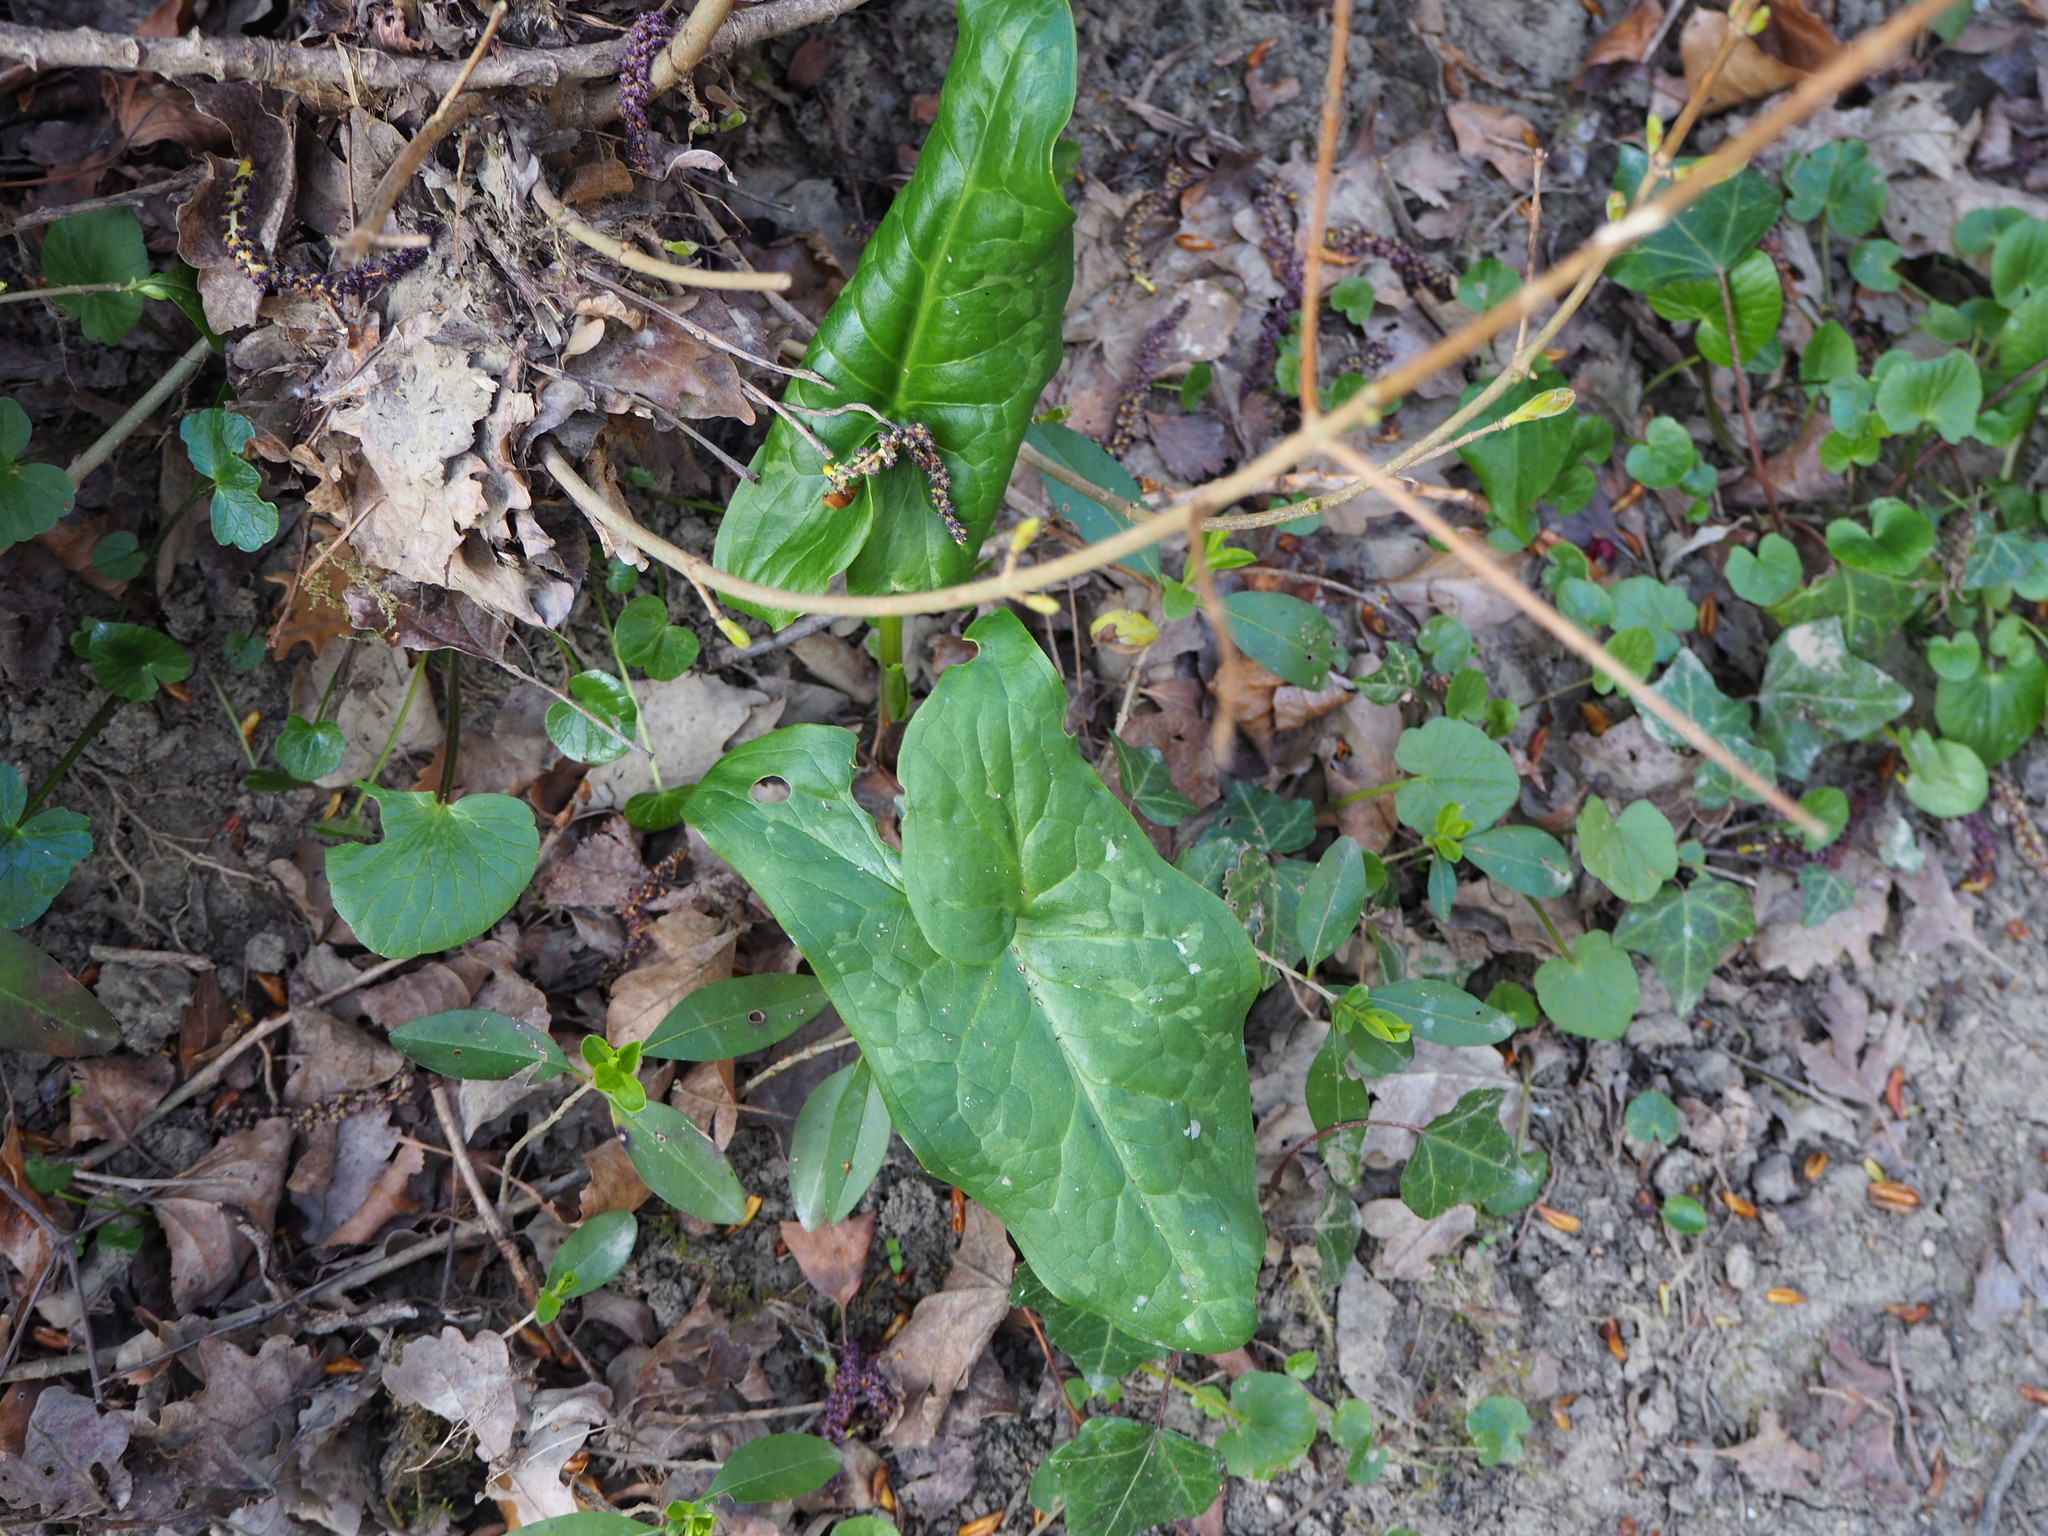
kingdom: Plantae
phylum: Tracheophyta
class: Liliopsida
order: Alismatales
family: Araceae
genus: Arum
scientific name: Arum italicum
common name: Italian lords-and-ladies
